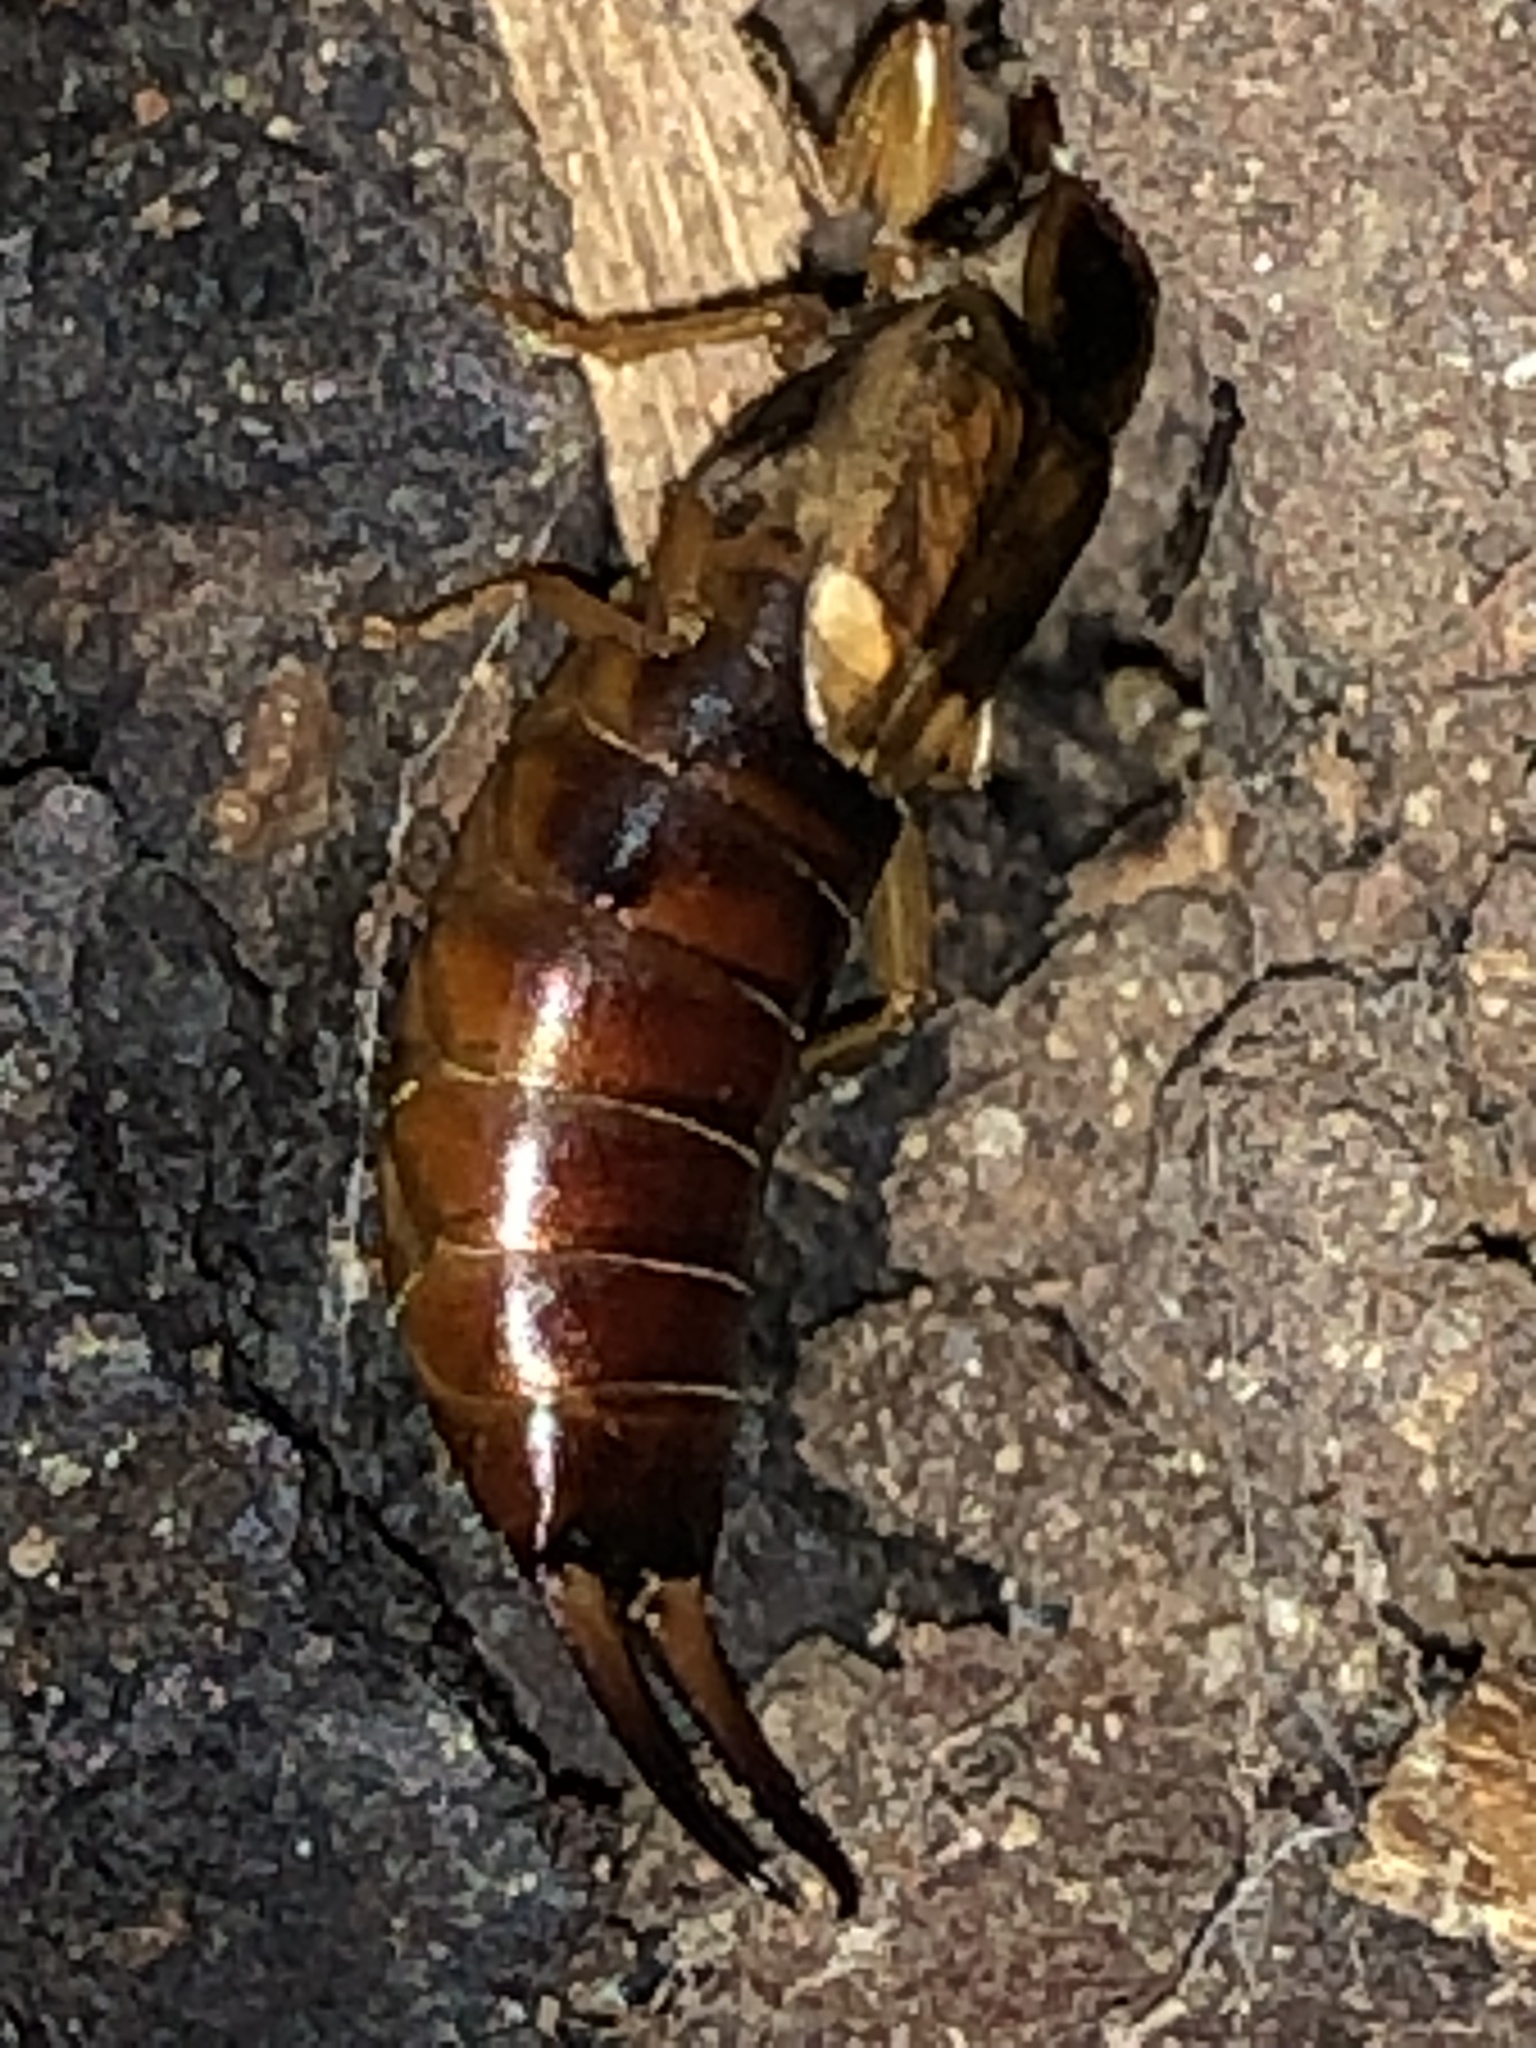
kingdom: Animalia
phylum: Arthropoda
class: Insecta
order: Dermaptera
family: Forficulidae
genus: Forficula
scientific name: Forficula
